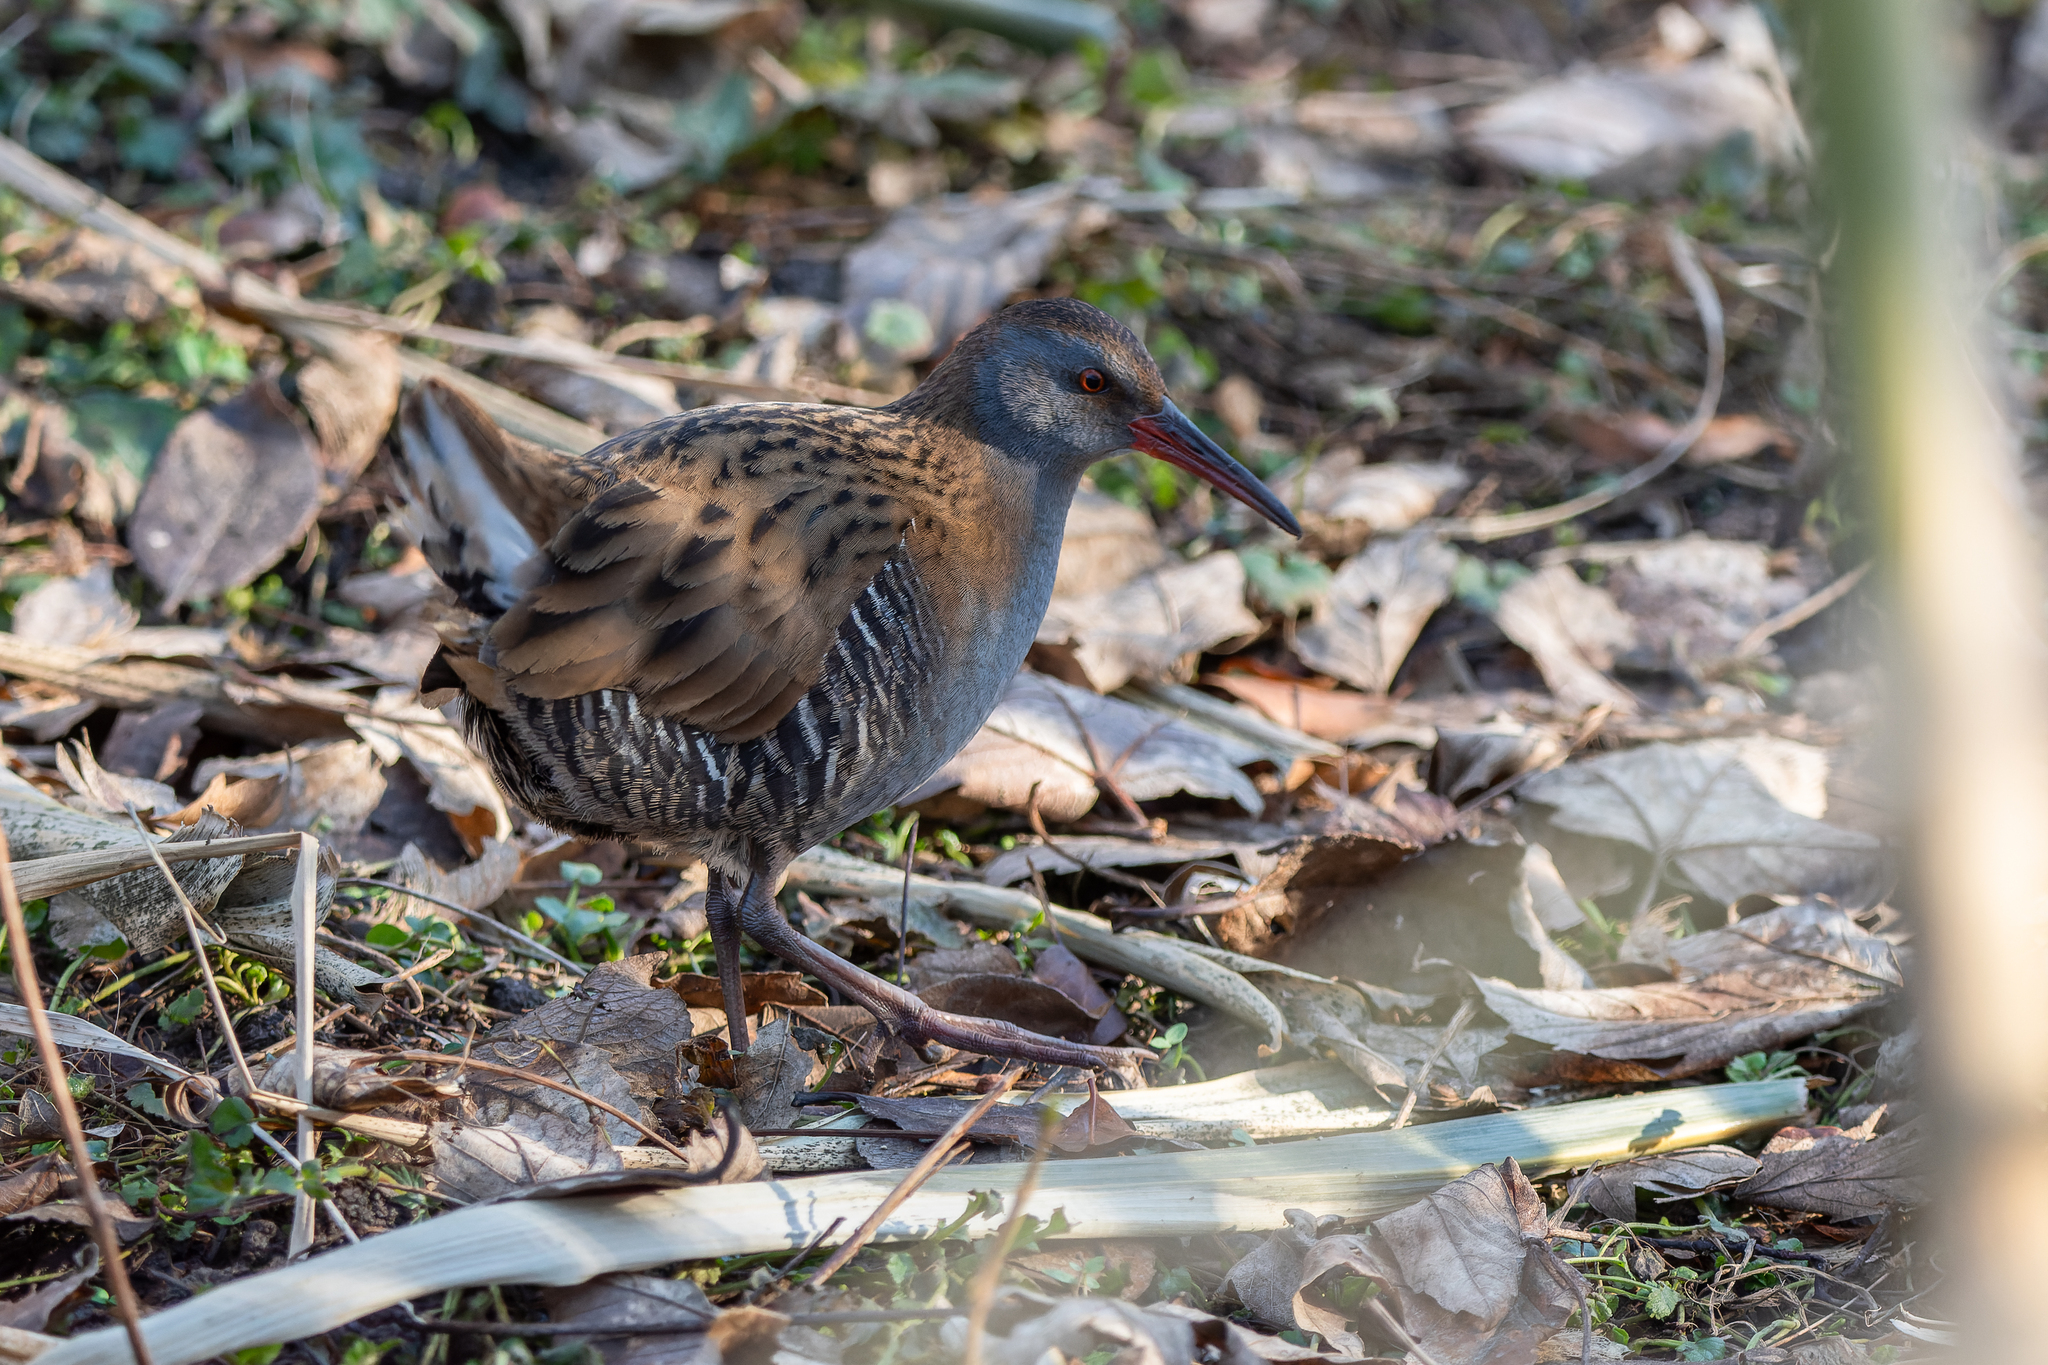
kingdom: Animalia
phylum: Chordata
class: Aves
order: Gruiformes
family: Rallidae
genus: Rallus
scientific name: Rallus aquaticus
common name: Water rail
